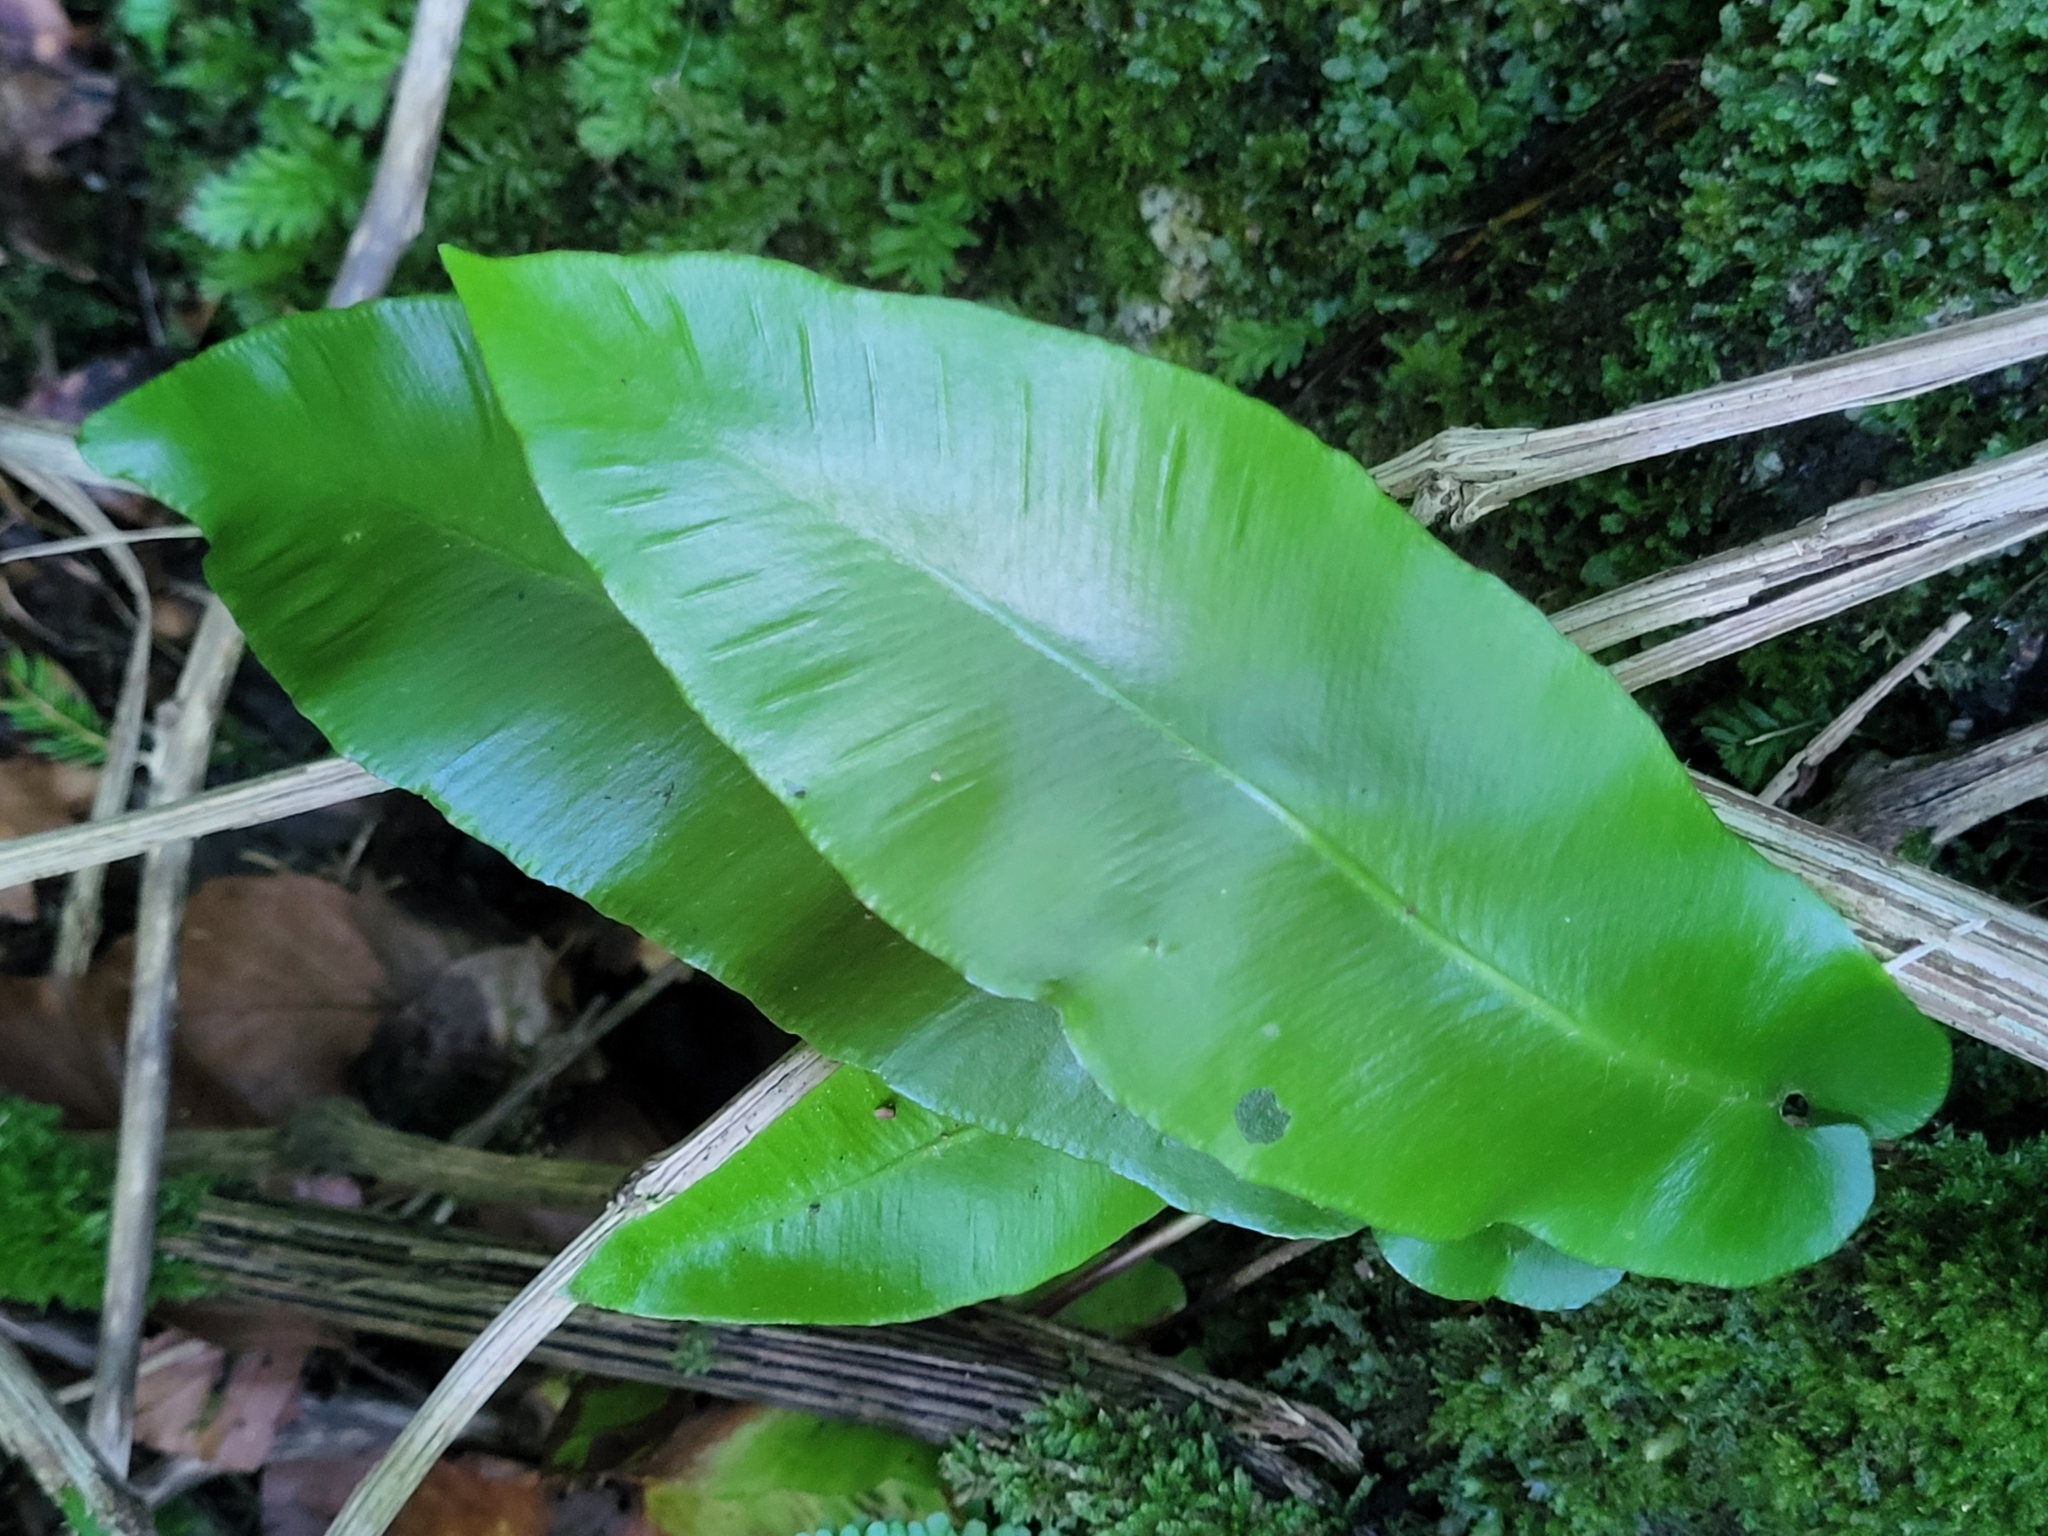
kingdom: Plantae
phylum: Tracheophyta
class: Polypodiopsida
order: Polypodiales
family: Aspleniaceae
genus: Asplenium
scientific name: Asplenium scolopendrium
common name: Hart's-tongue fern
